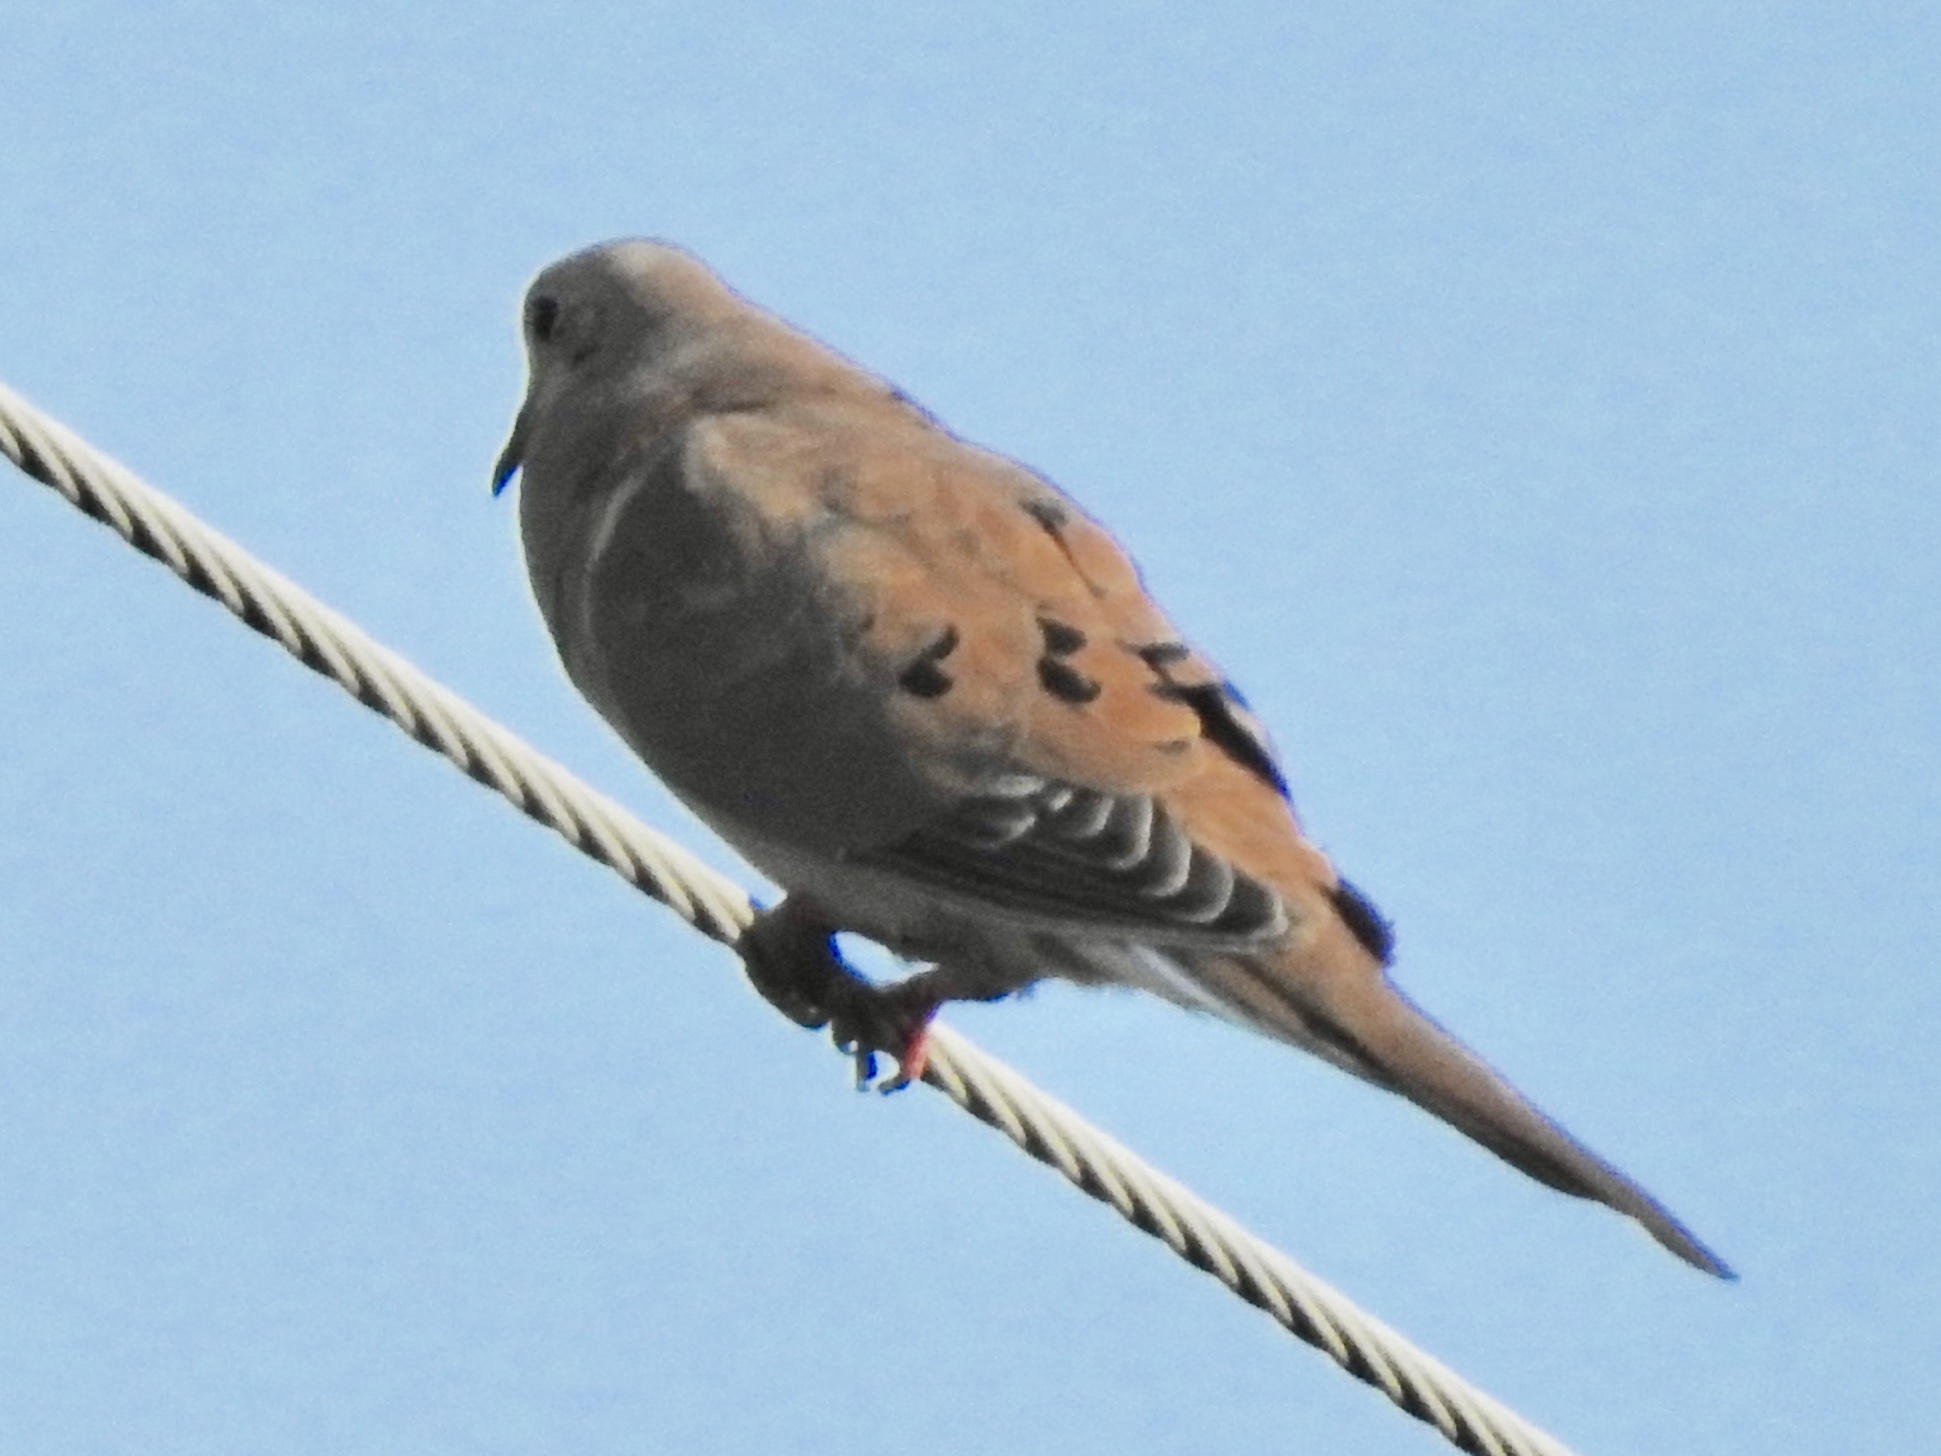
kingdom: Animalia
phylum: Chordata
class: Aves
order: Columbiformes
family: Columbidae
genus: Zenaida
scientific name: Zenaida macroura
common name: Mourning dove
